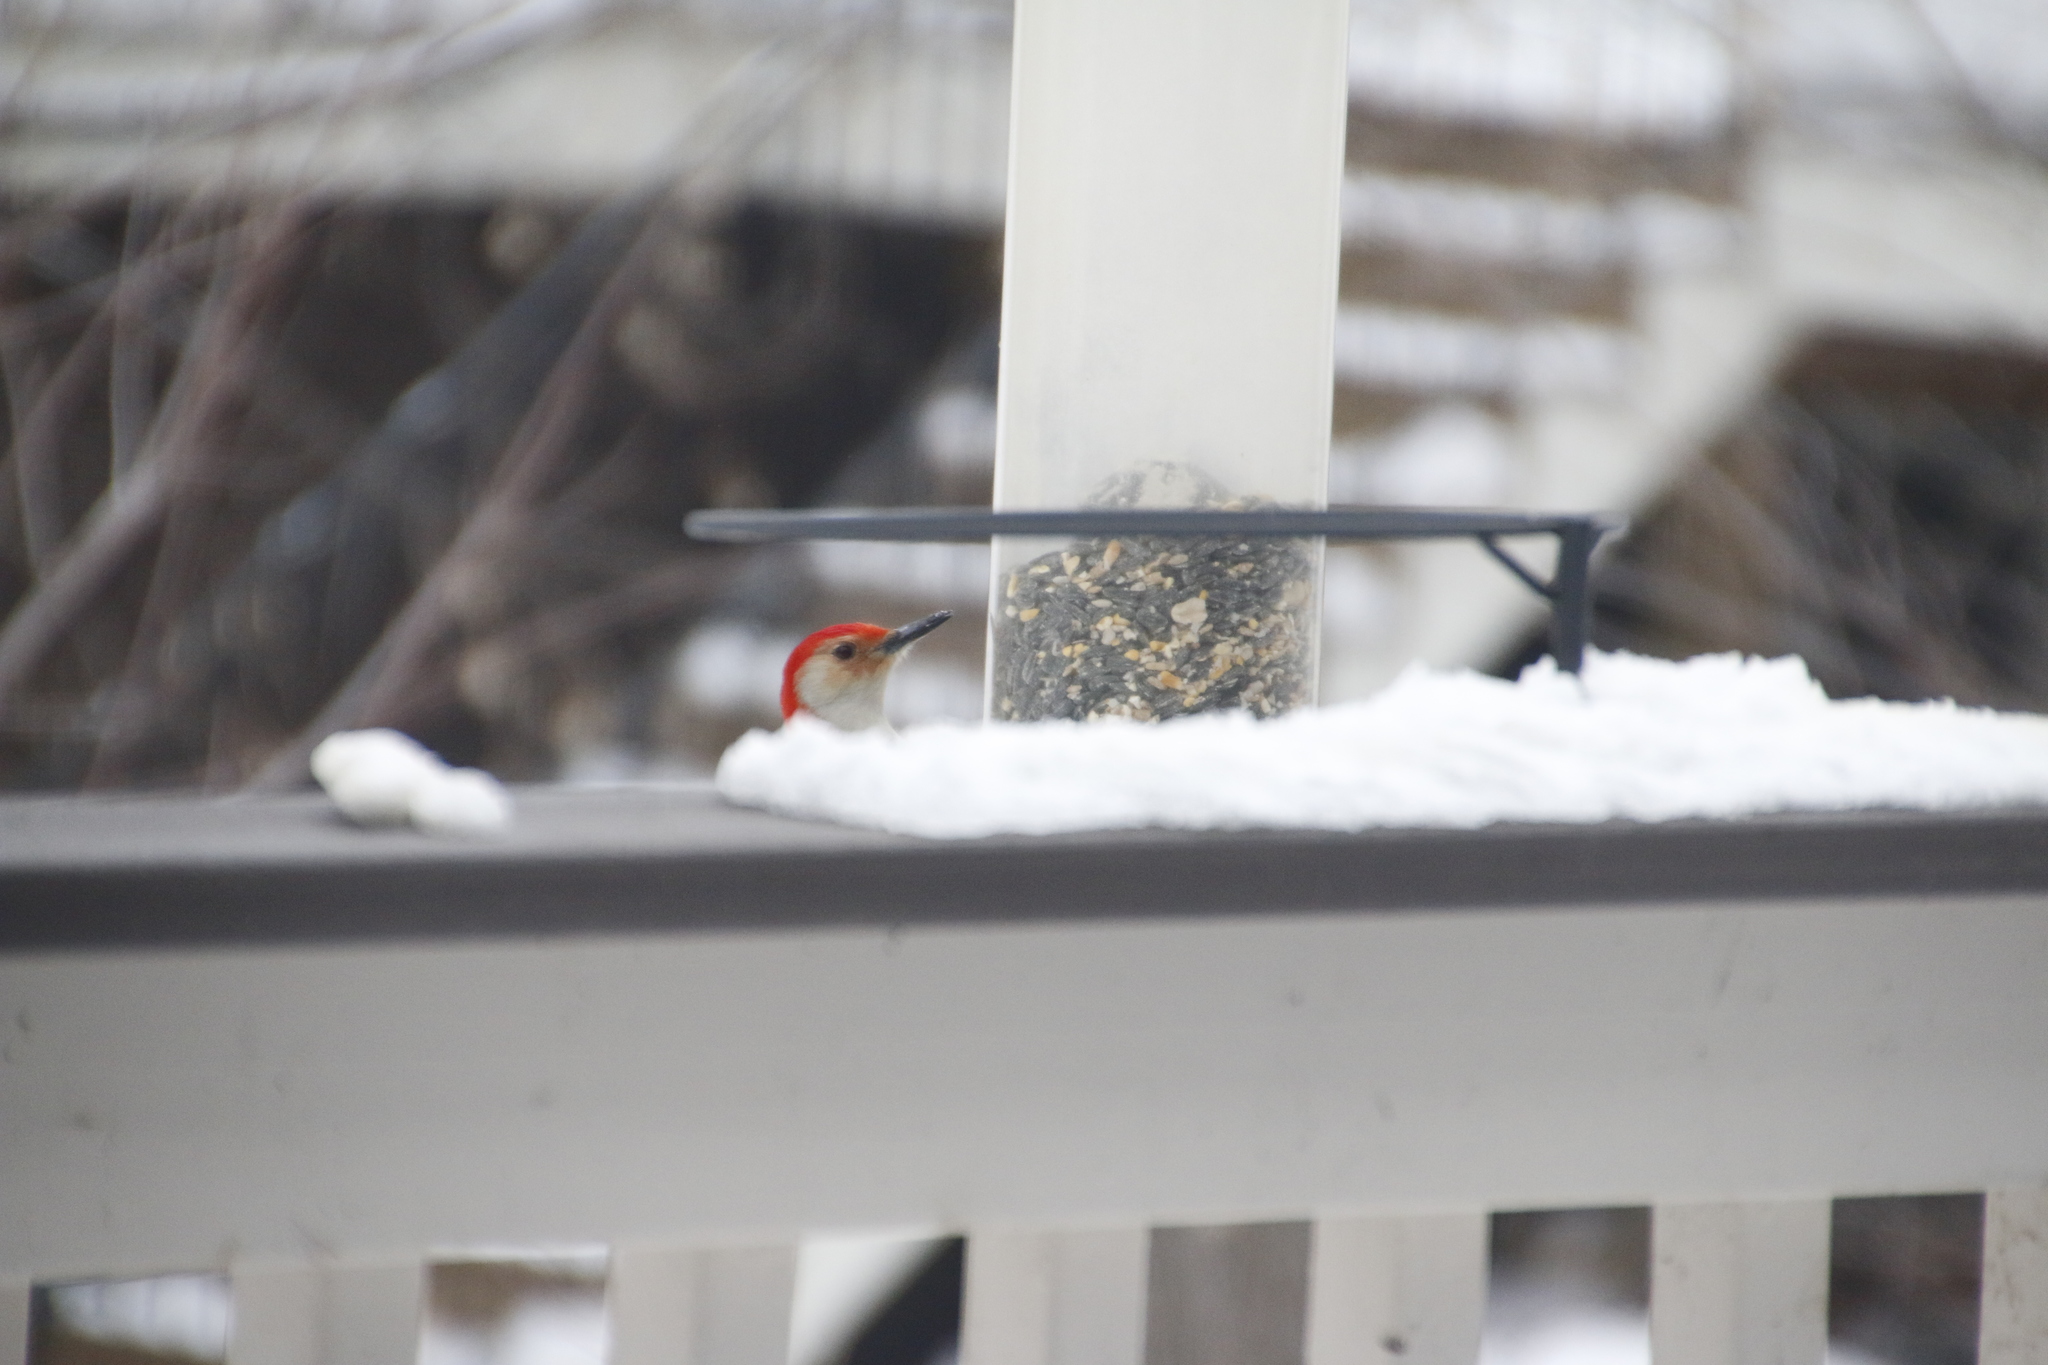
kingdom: Animalia
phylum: Chordata
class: Aves
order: Piciformes
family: Picidae
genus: Melanerpes
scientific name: Melanerpes carolinus
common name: Red-bellied woodpecker
